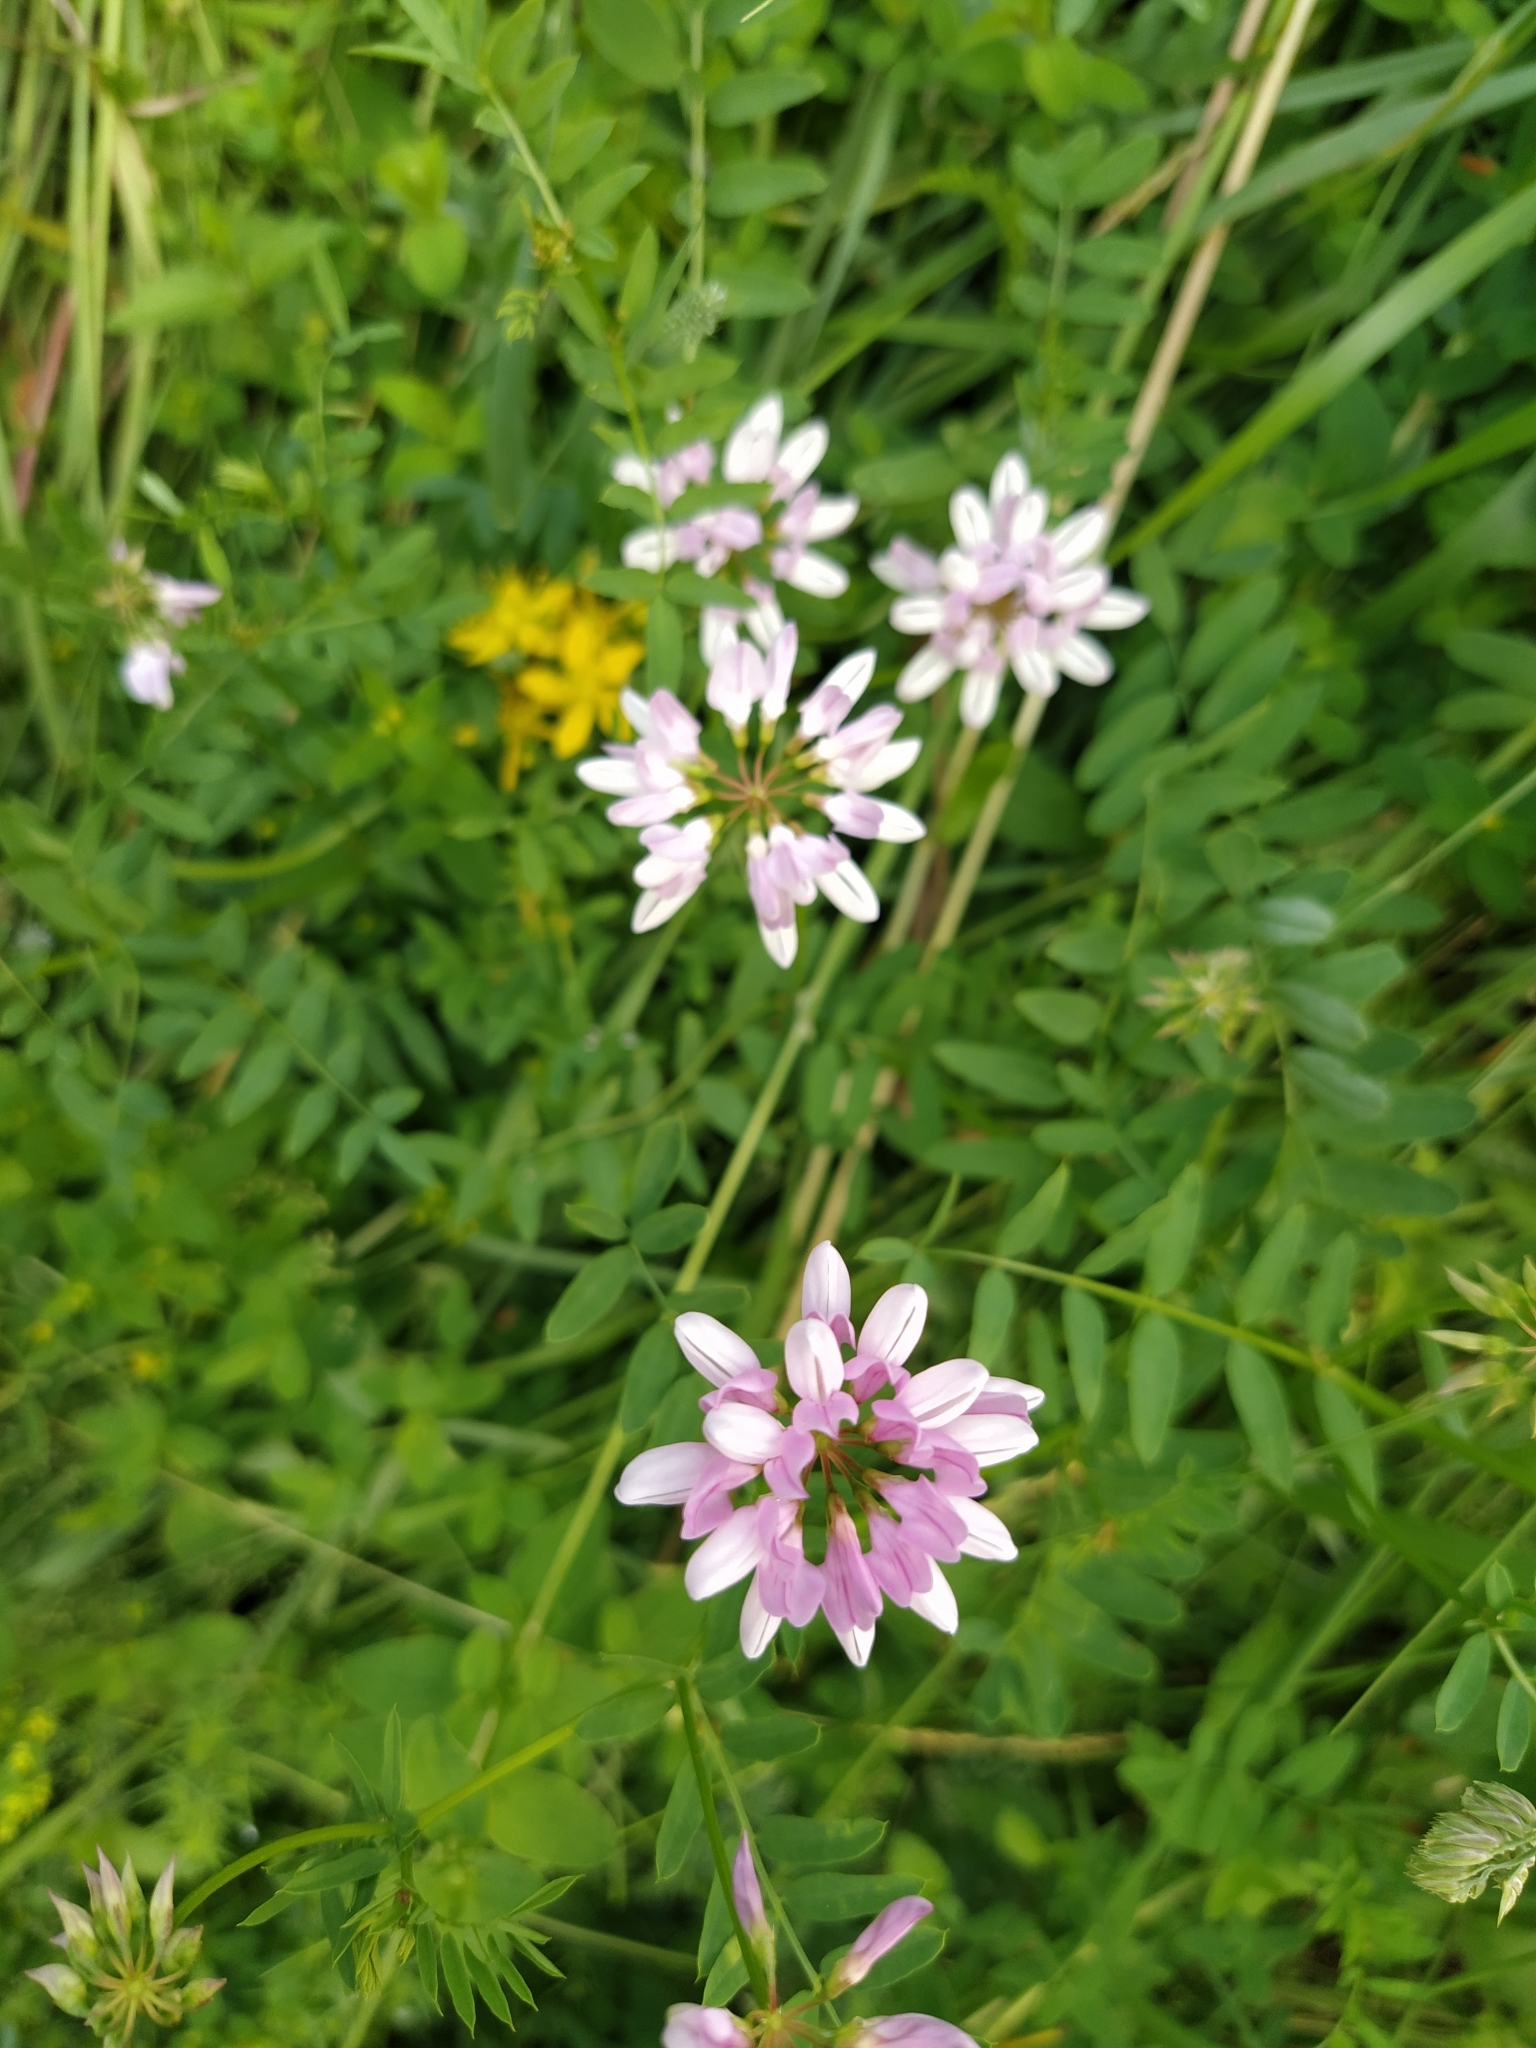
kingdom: Plantae
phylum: Tracheophyta
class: Magnoliopsida
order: Fabales
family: Fabaceae
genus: Coronilla
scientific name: Coronilla varia
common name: Crownvetch
